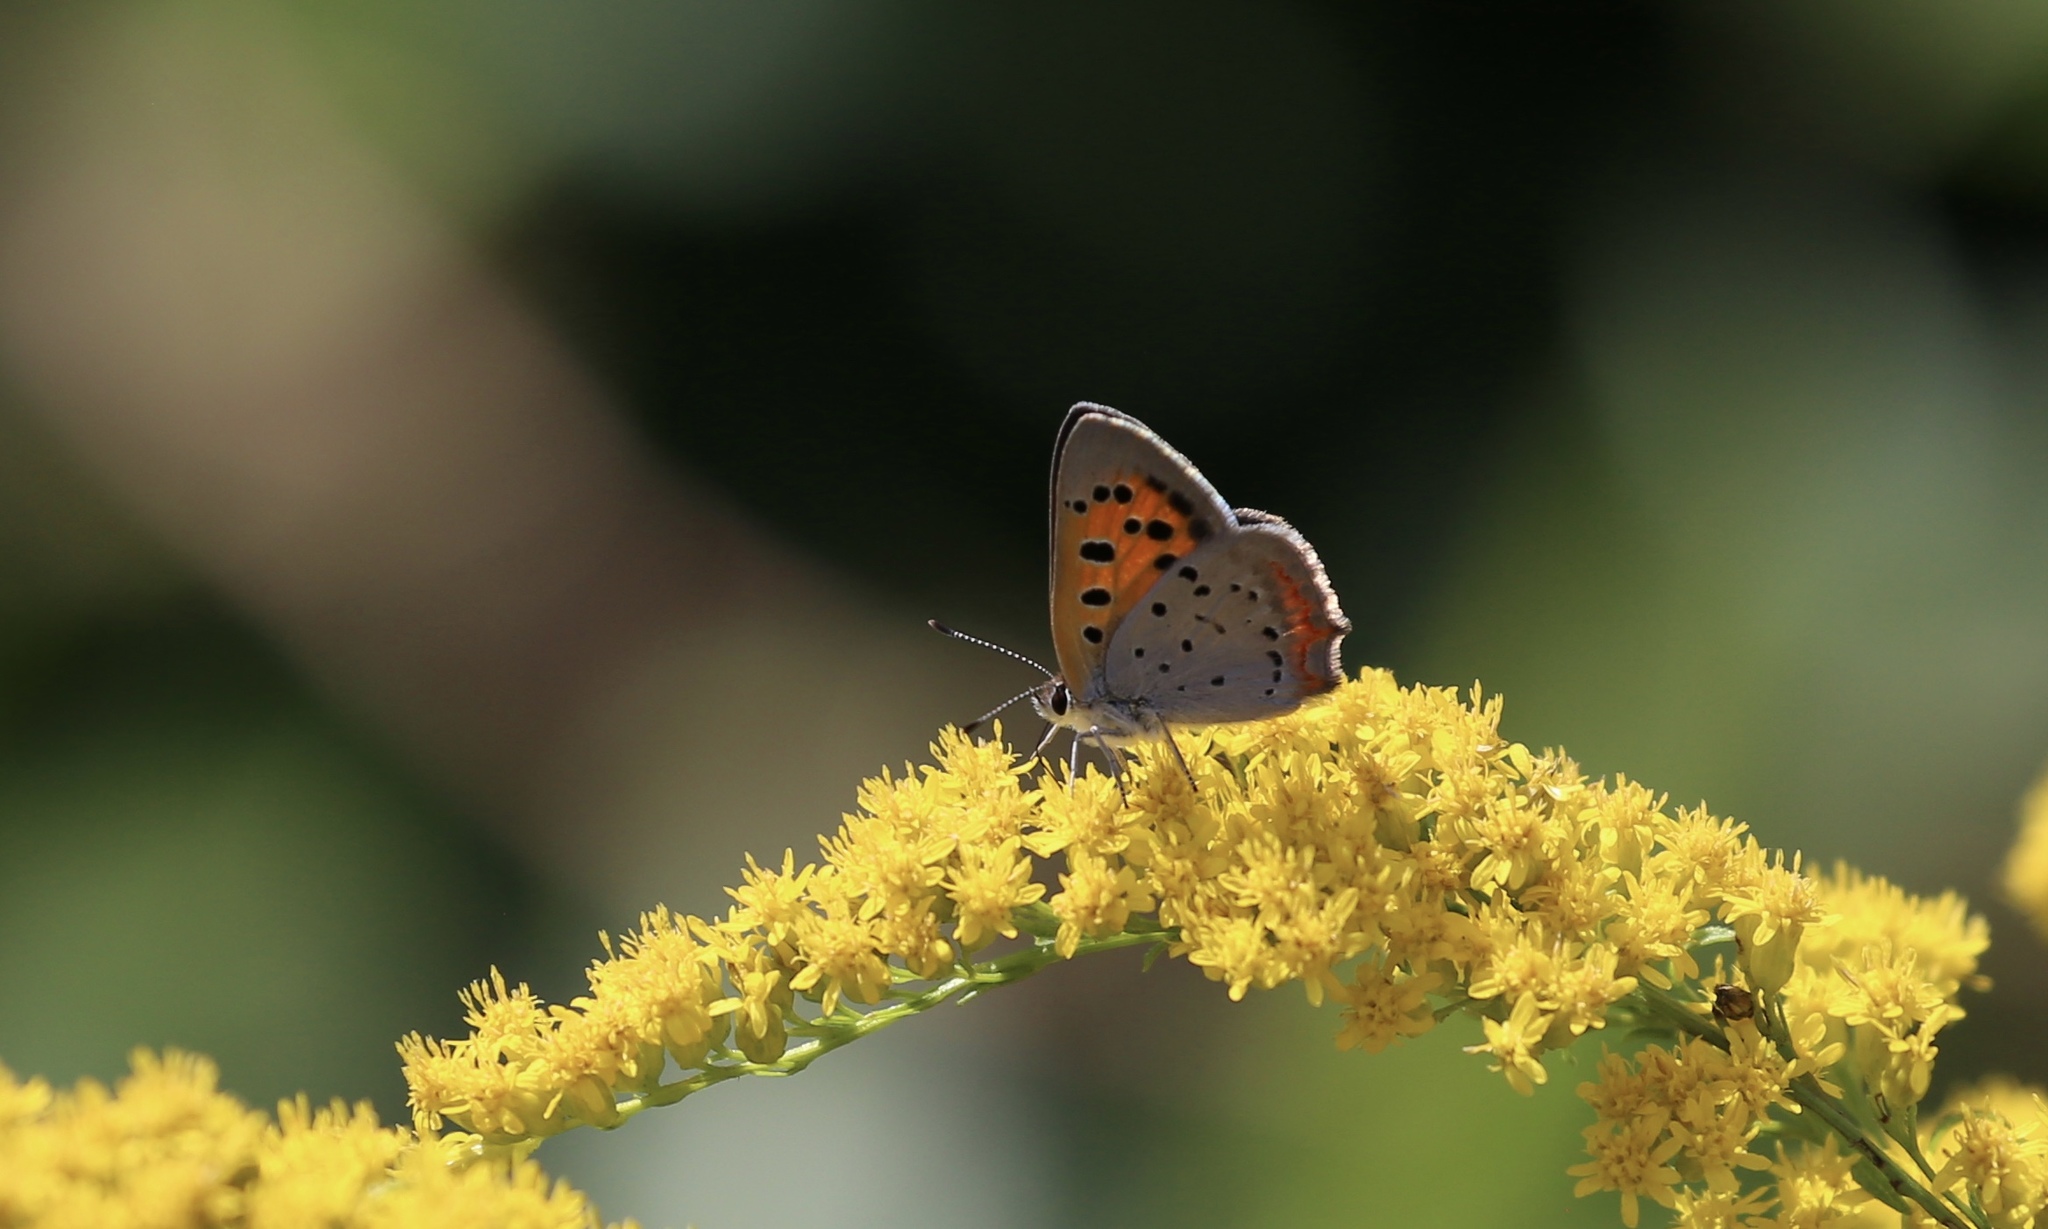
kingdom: Animalia
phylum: Arthropoda
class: Insecta
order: Lepidoptera
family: Lycaenidae
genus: Lycaena
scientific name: Lycaena hypophlaeas
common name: American copper
